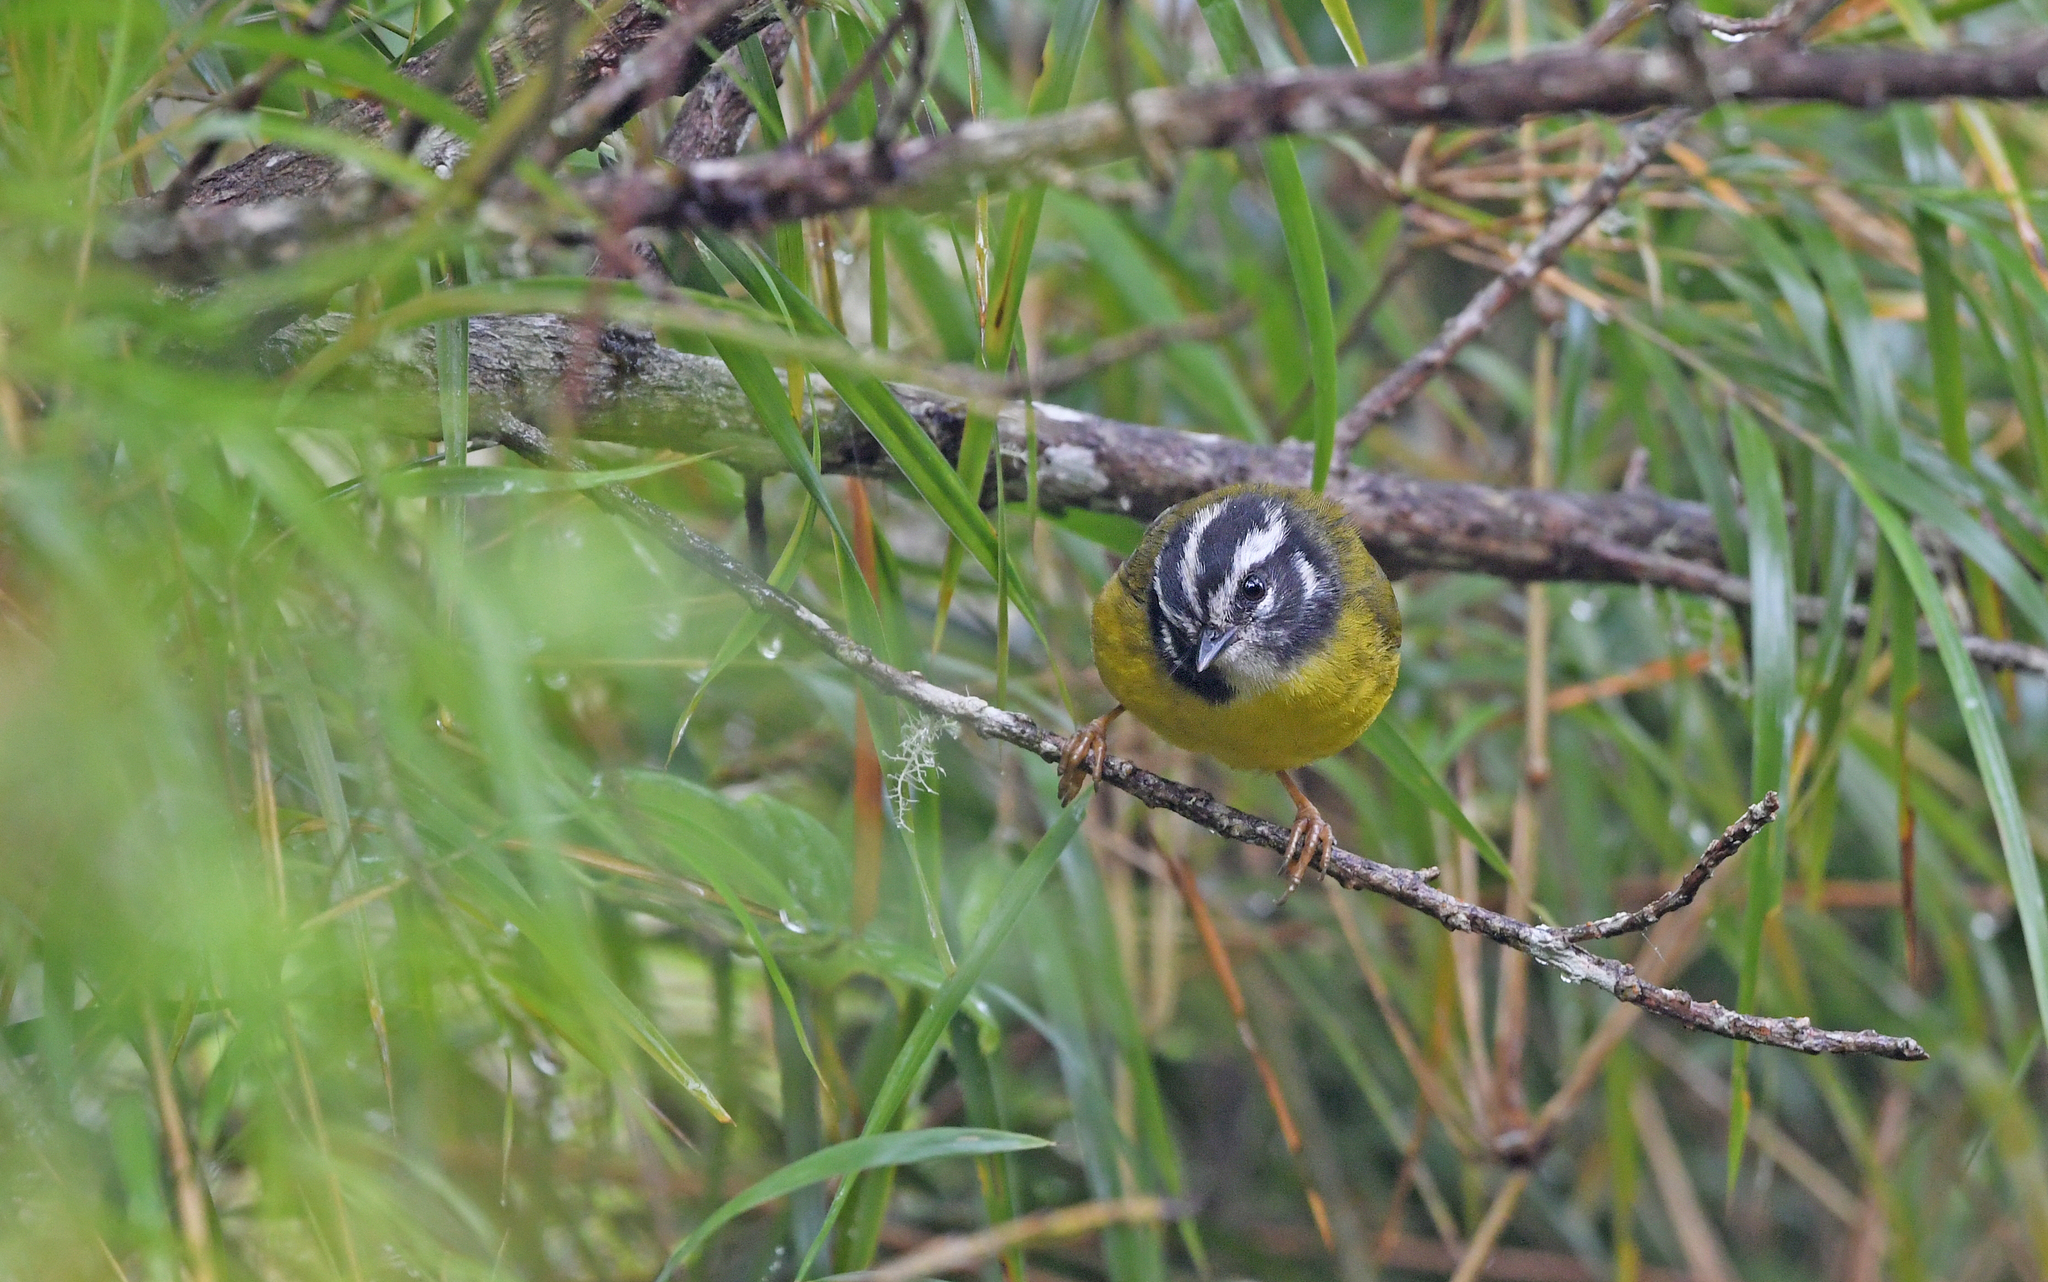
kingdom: Animalia
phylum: Chordata
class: Aves
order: Passeriformes
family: Parulidae
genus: Basileuterus
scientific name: Basileuterus basilicus
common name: Santa marta warbler
